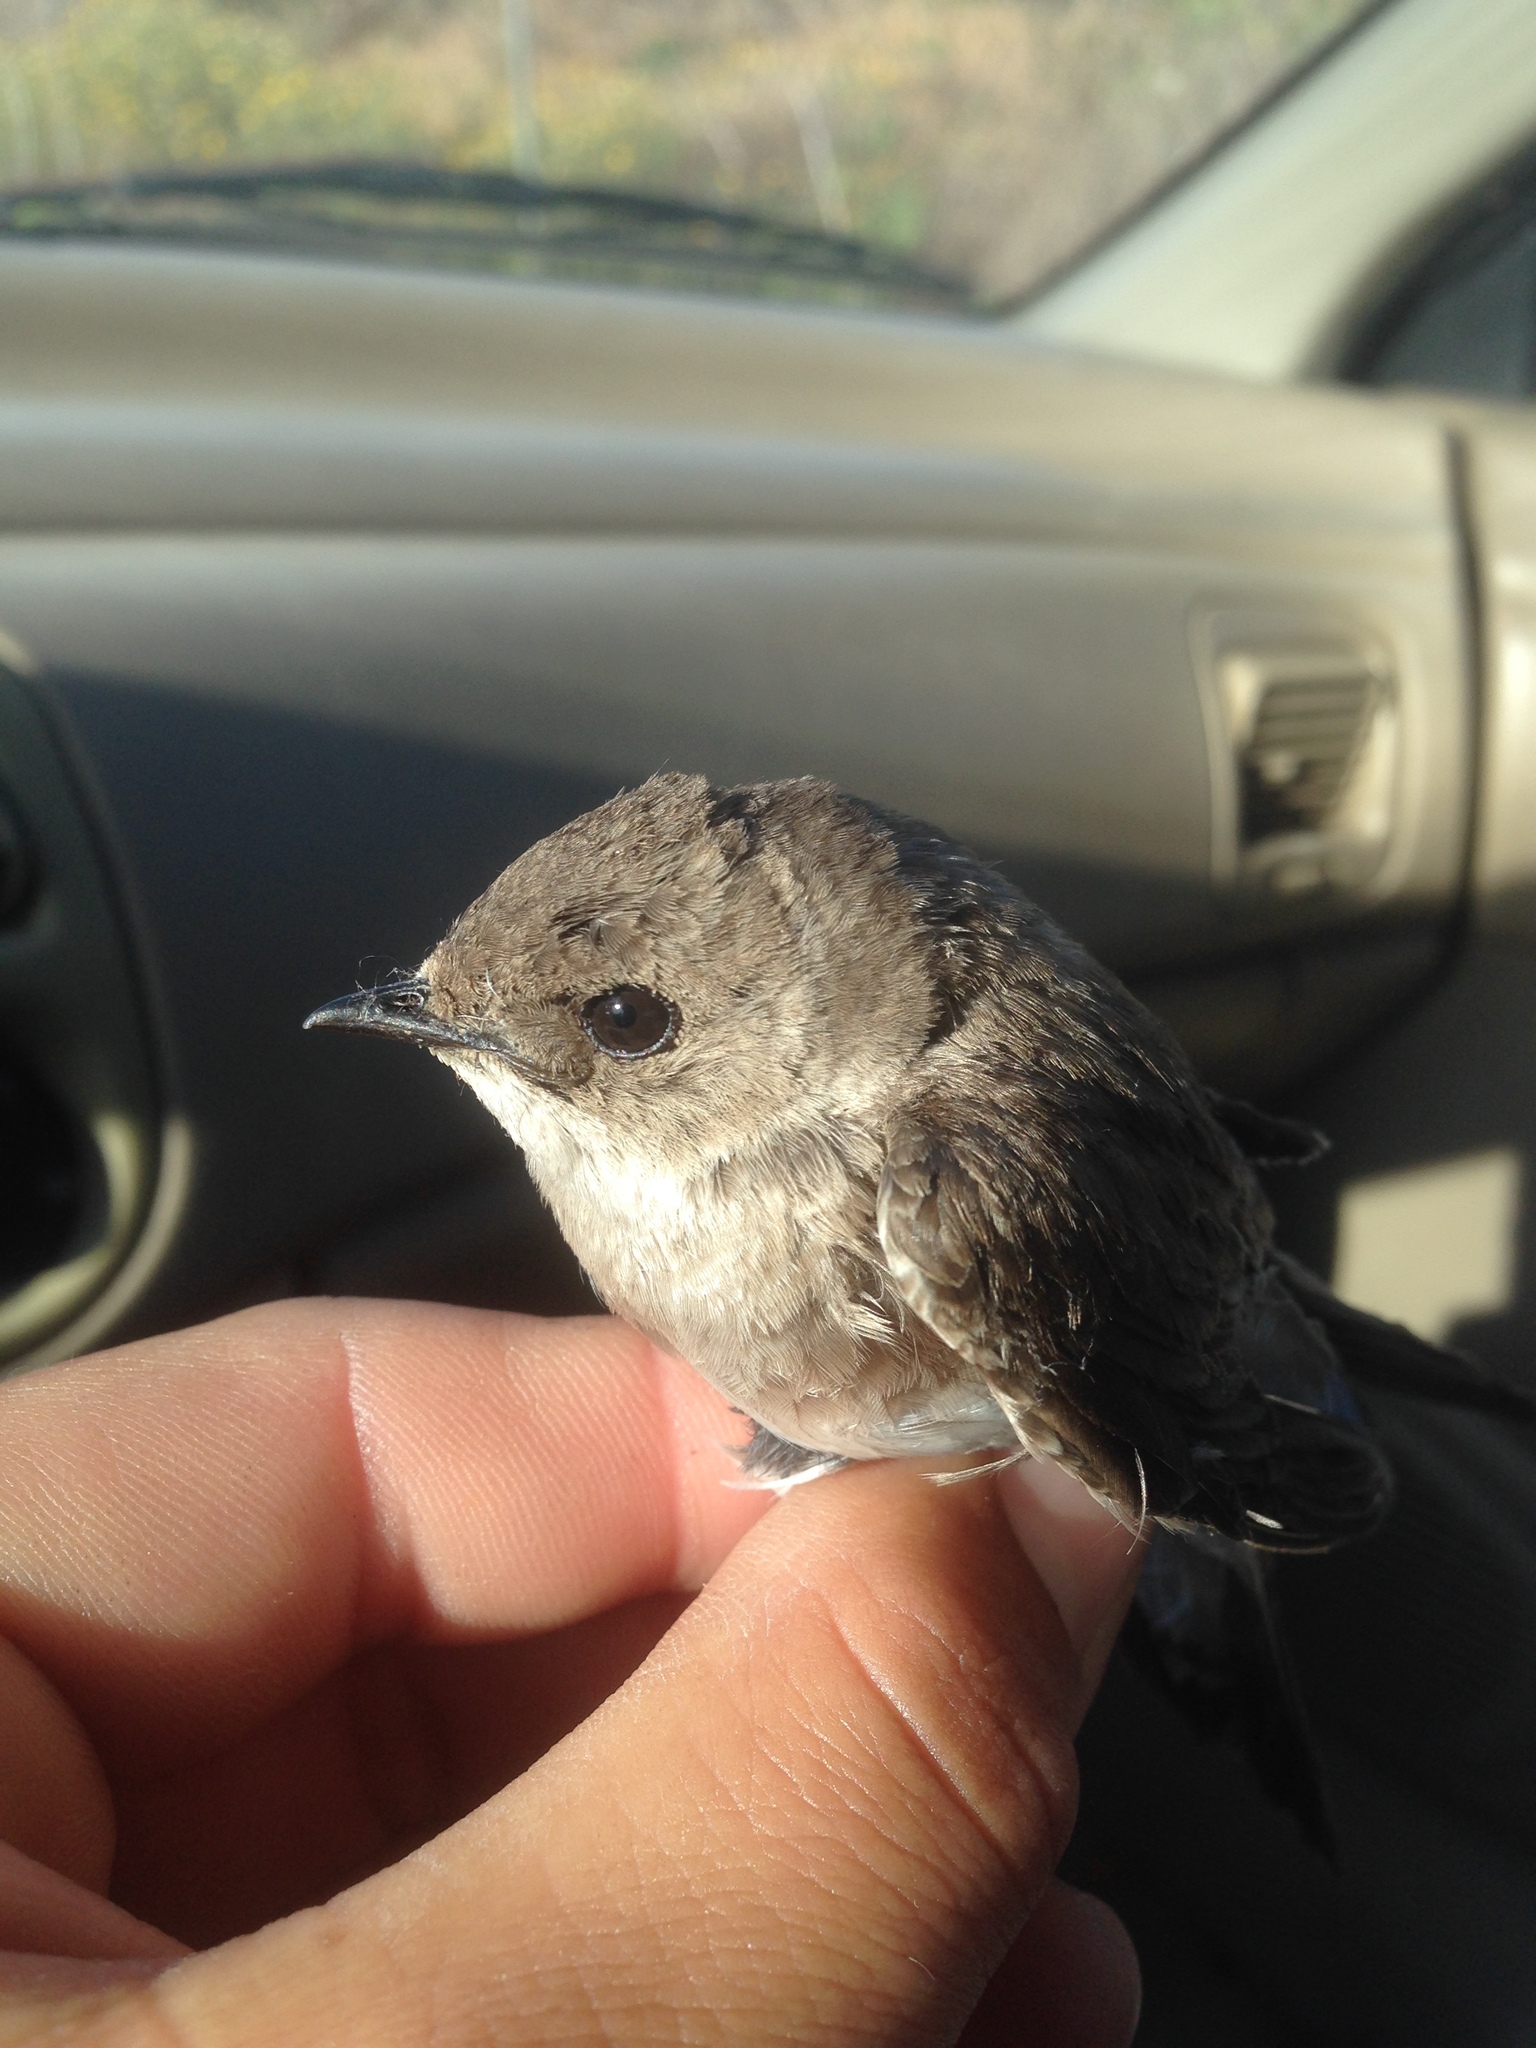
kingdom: Animalia
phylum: Chordata
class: Aves
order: Passeriformes
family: Hirundinidae
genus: Stelgidopteryx
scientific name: Stelgidopteryx serripennis
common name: Northern rough-winged swallow
